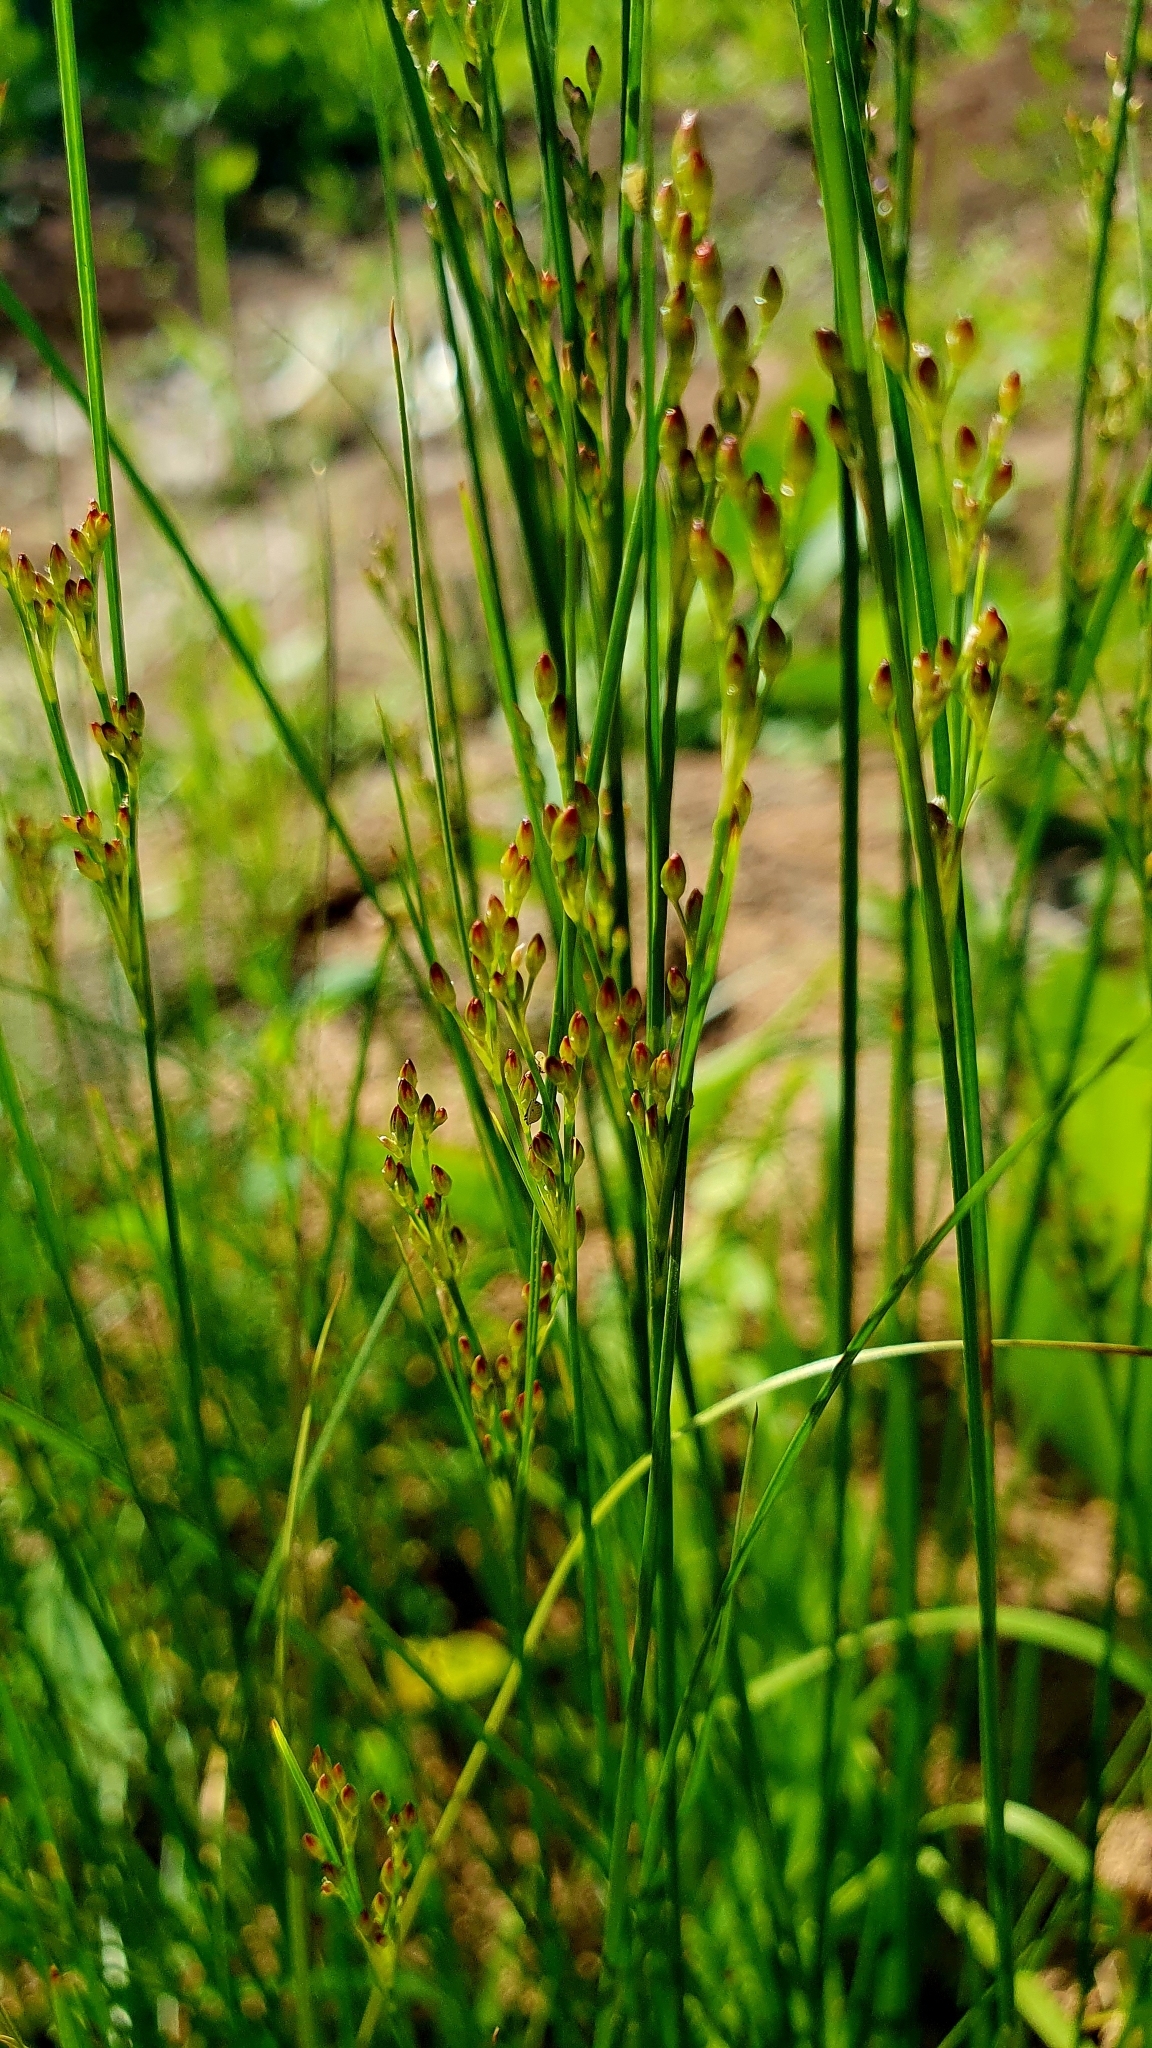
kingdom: Plantae
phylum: Tracheophyta
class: Liliopsida
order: Poales
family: Juncaceae
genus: Juncus
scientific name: Juncus compressus
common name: Round-fruited rush
